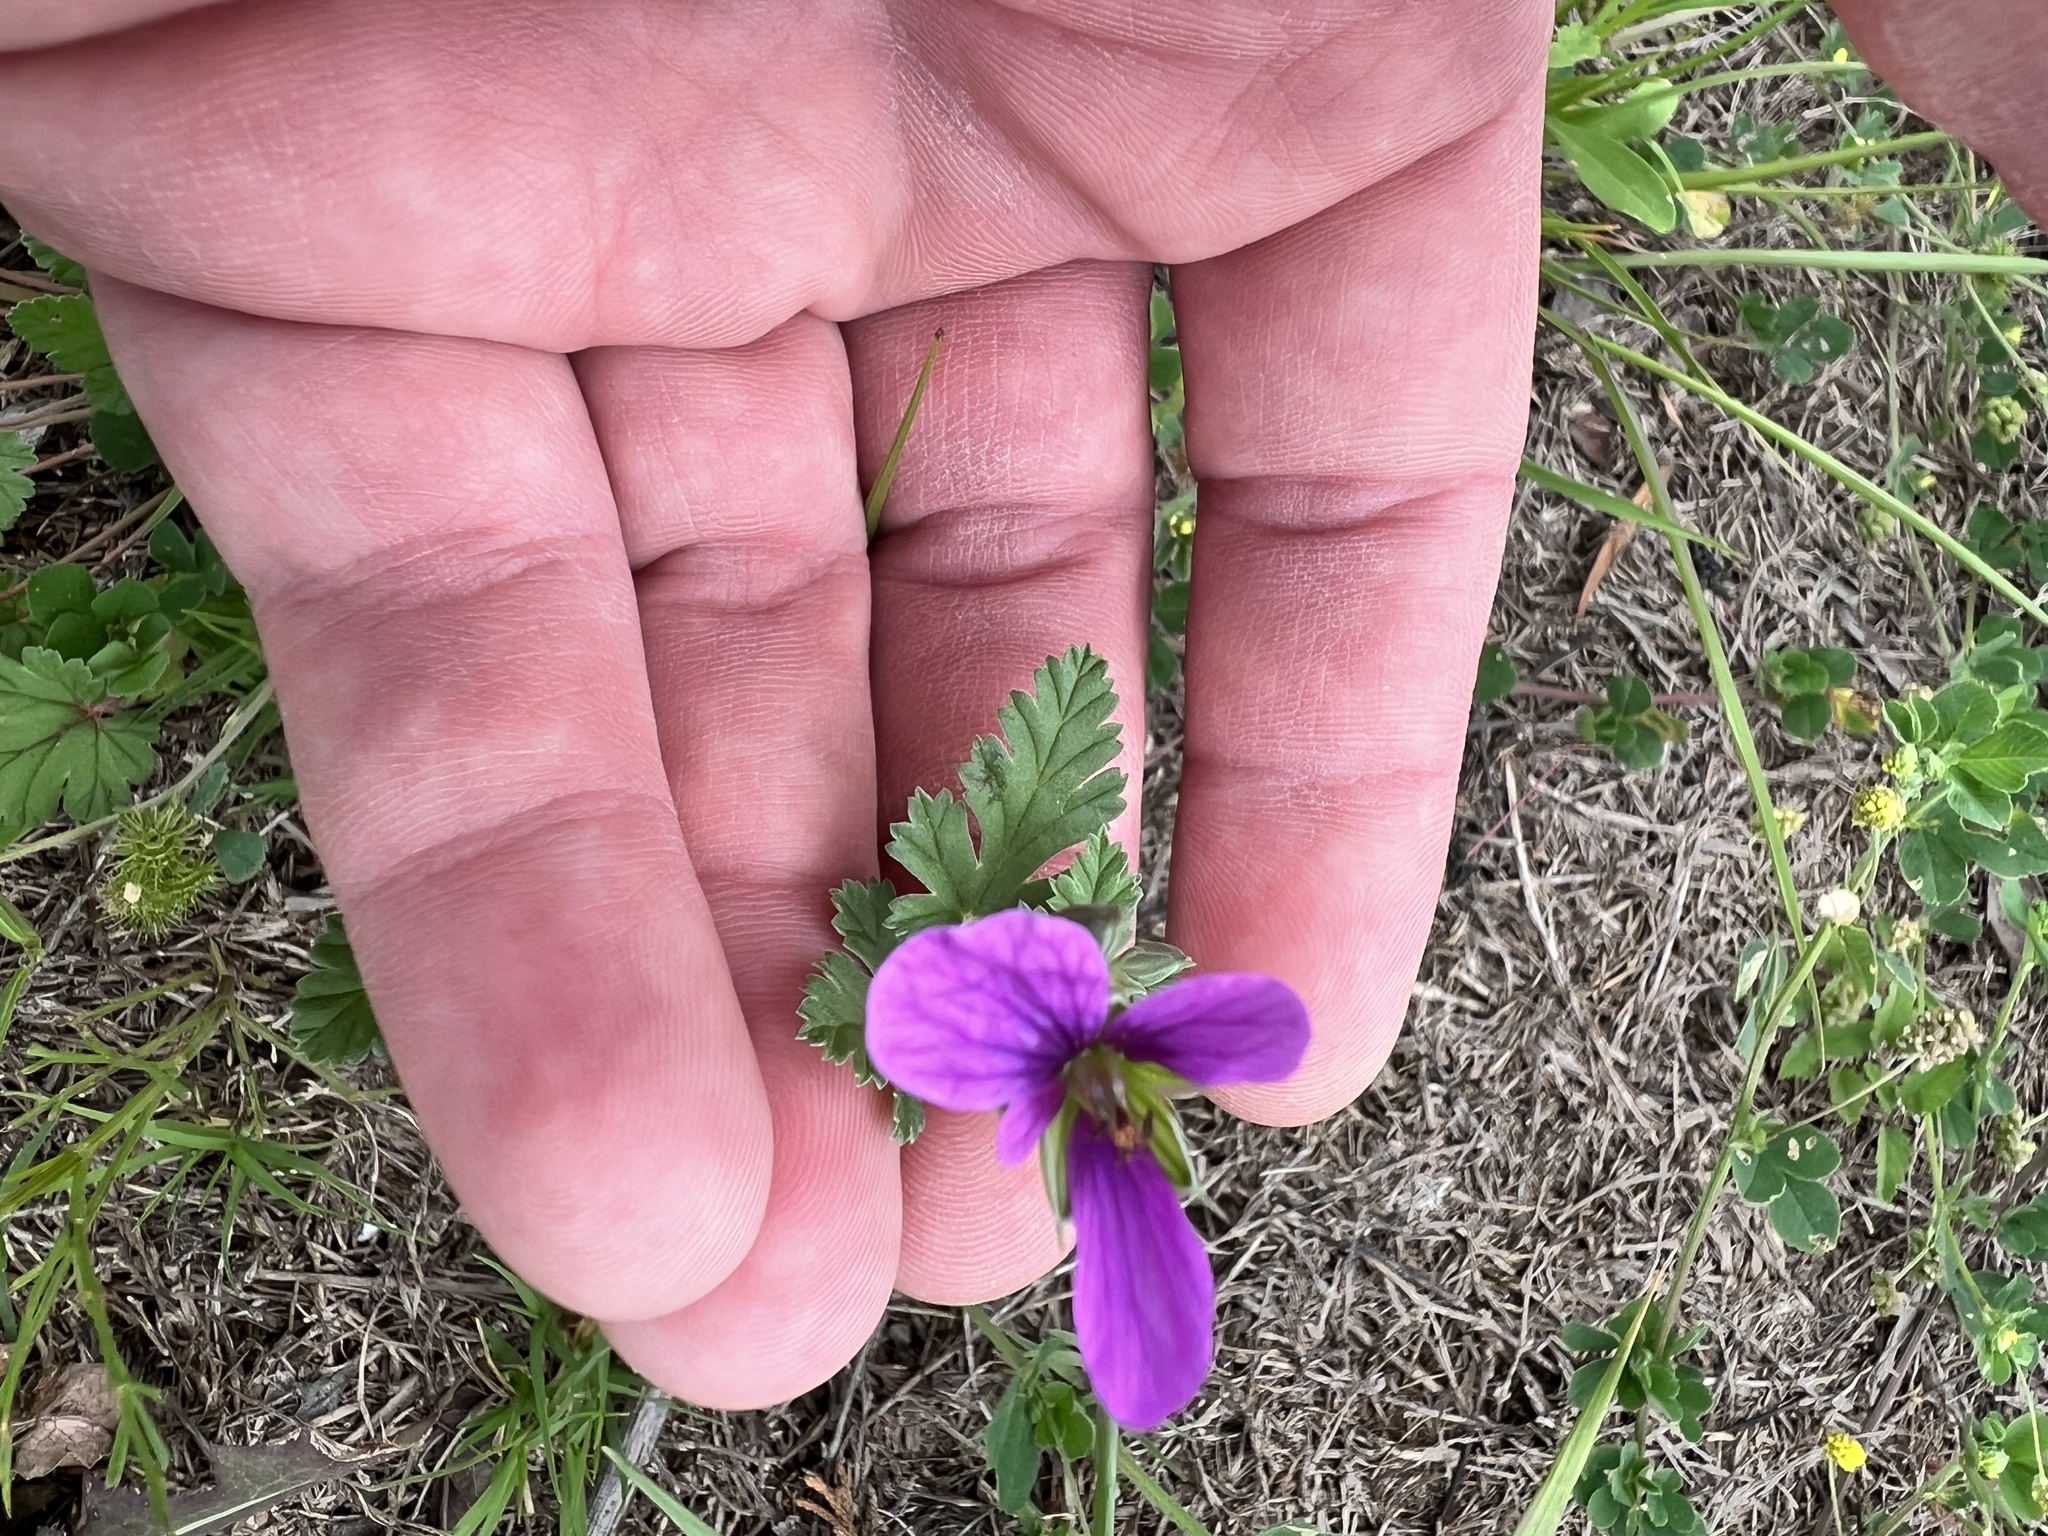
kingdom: Plantae
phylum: Tracheophyta
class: Magnoliopsida
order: Geraniales
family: Geraniaceae
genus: Erodium
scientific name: Erodium texanum
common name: Texas stork's-bill
